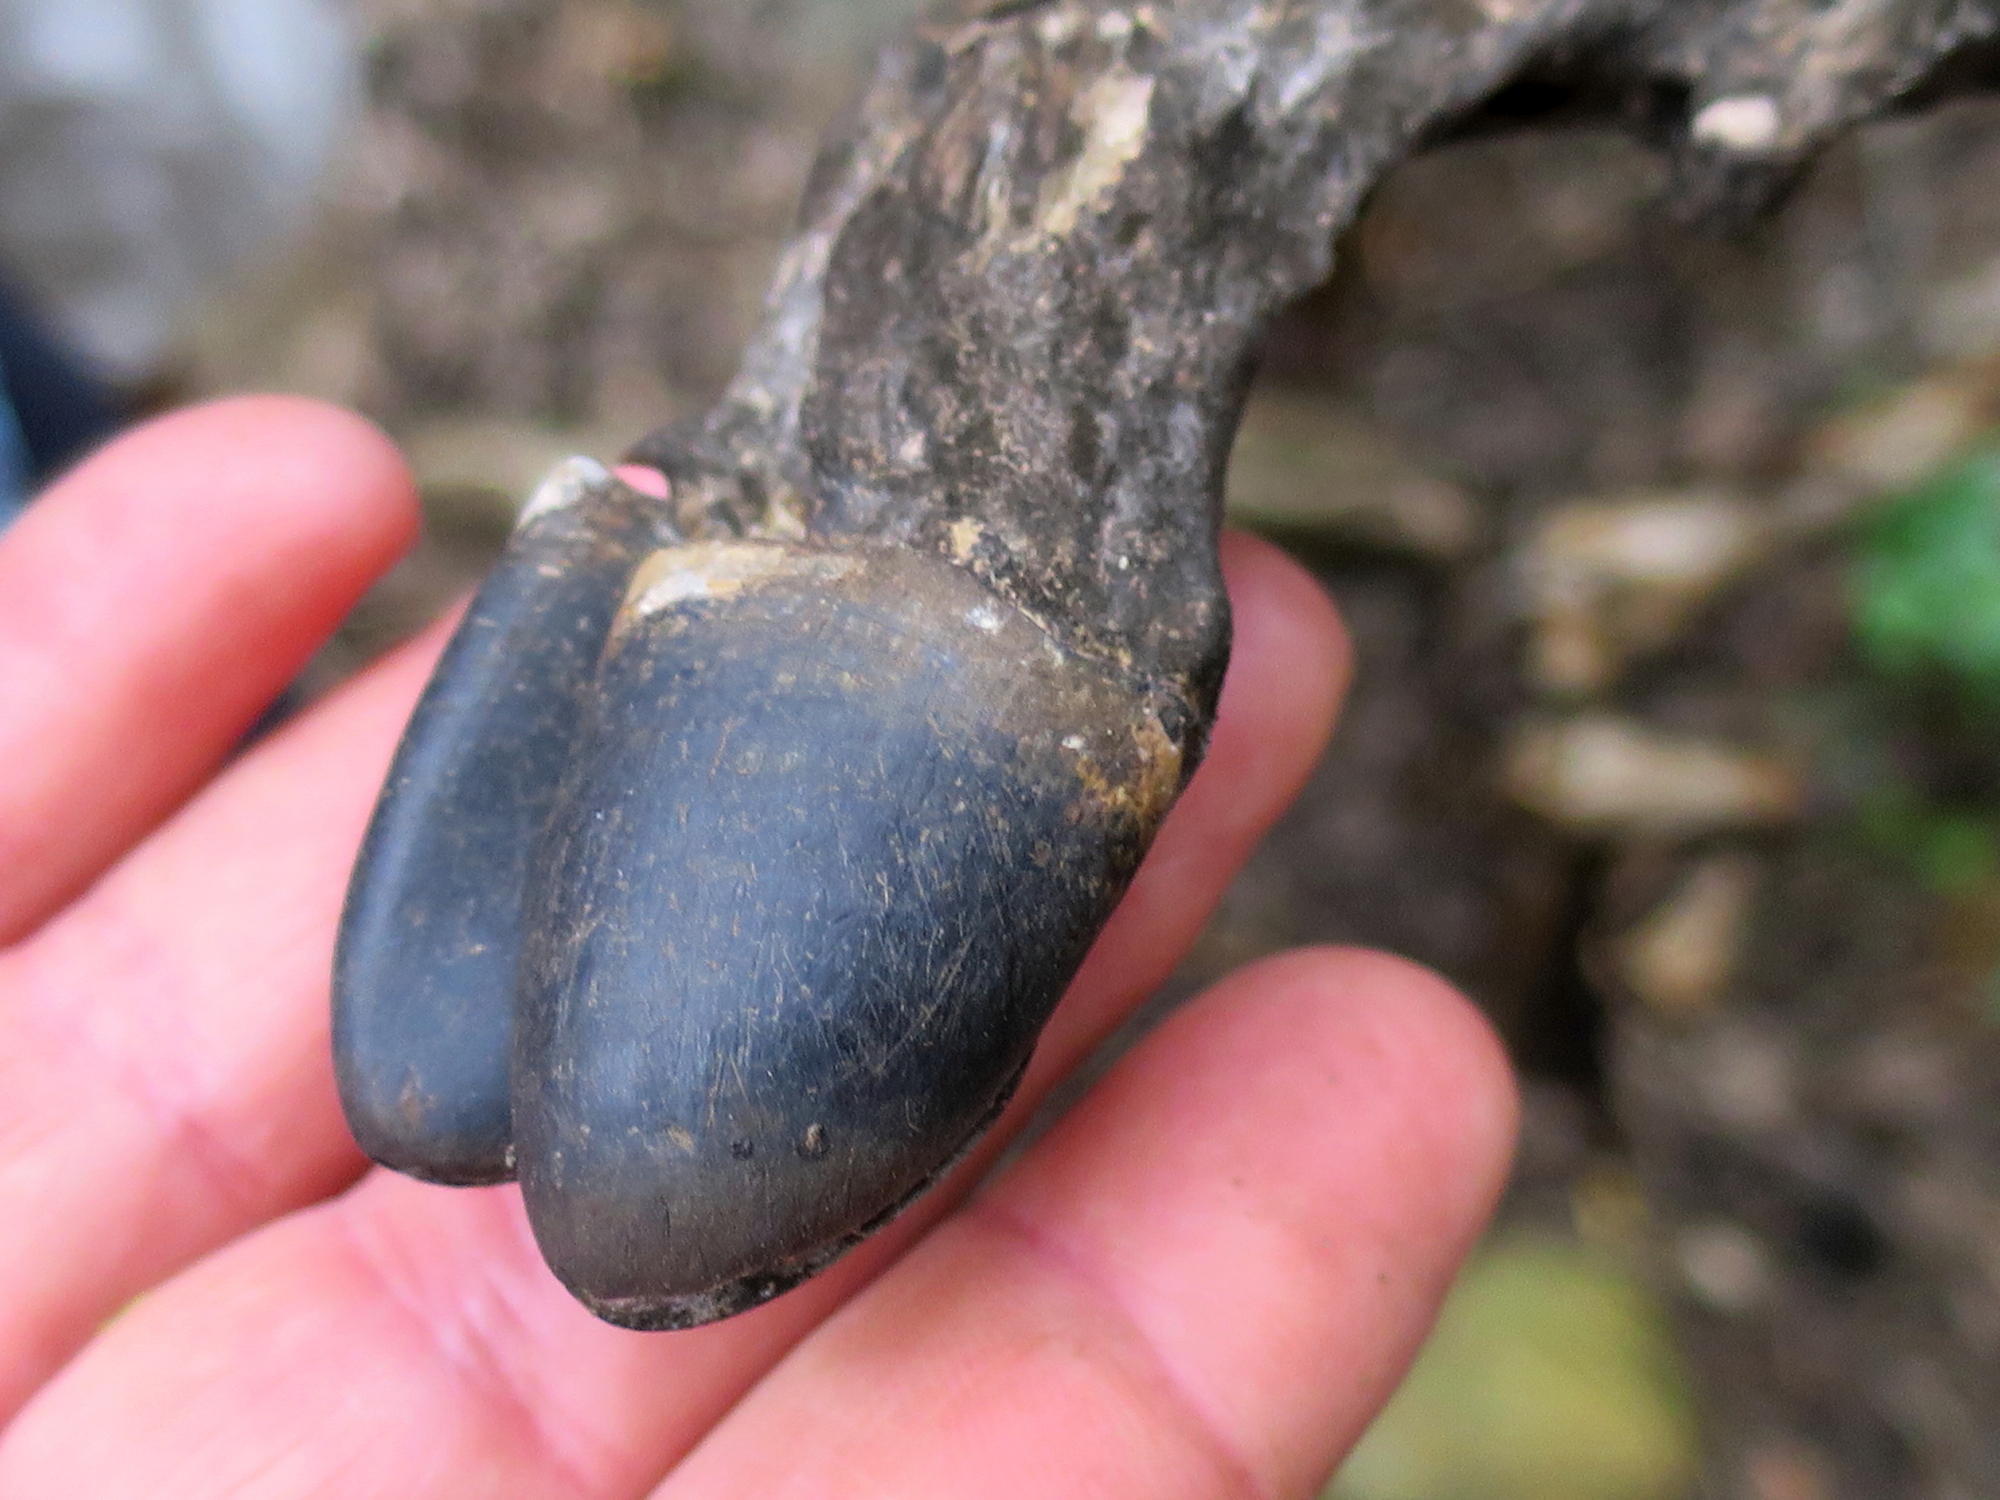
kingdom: Animalia
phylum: Chordata
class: Mammalia
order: Artiodactyla
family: Bovidae
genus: Oreotragus
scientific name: Oreotragus oreotragus
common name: Klipspringer
